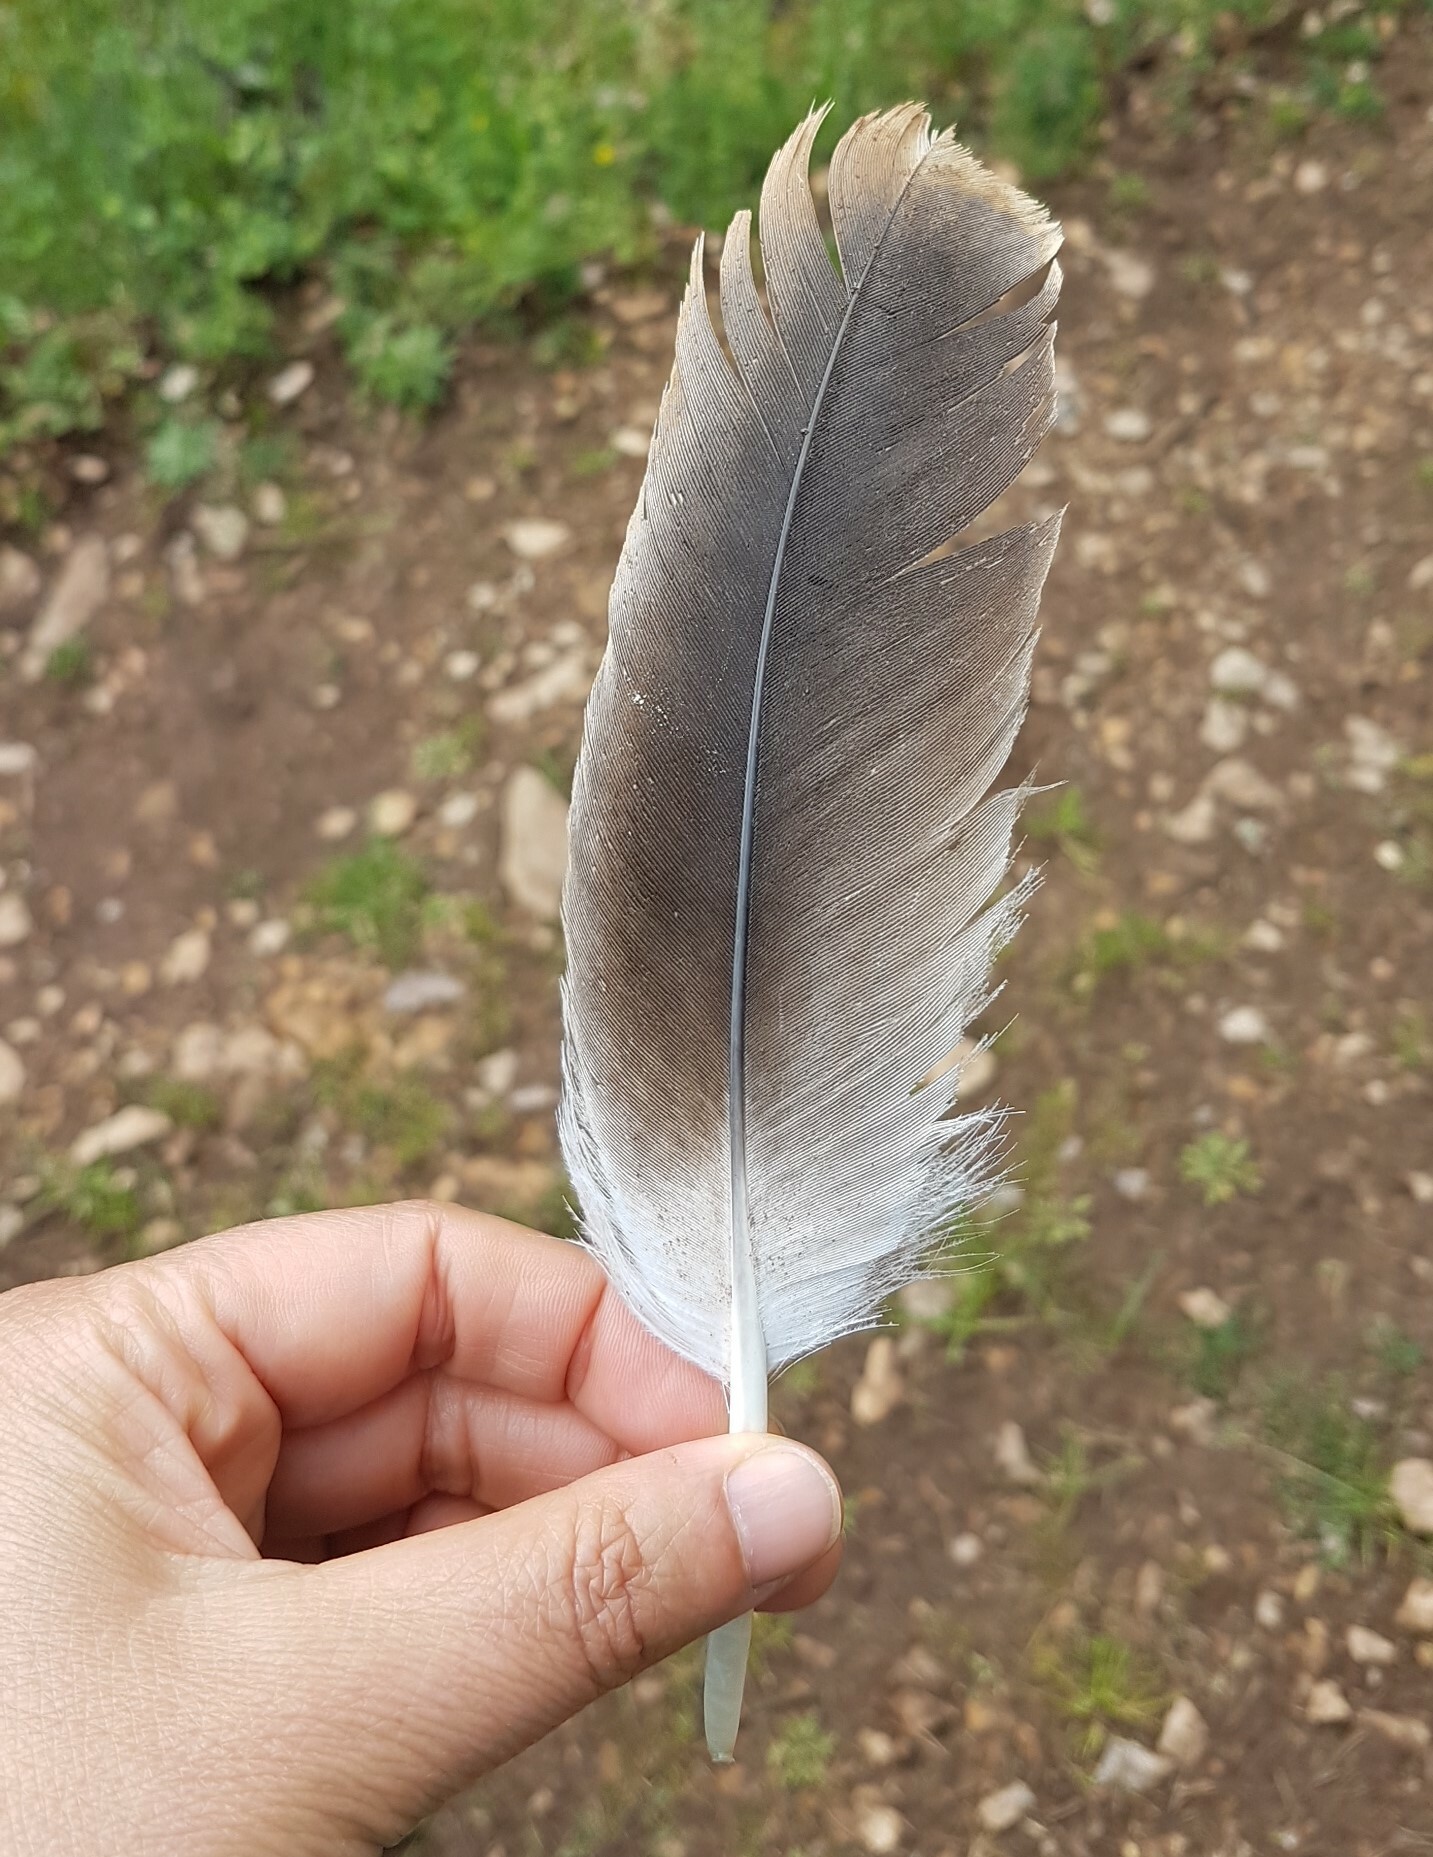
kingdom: Animalia
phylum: Chordata
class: Aves
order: Accipitriformes
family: Accipitridae
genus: Gyps
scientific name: Gyps fulvus
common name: Griffon vulture
